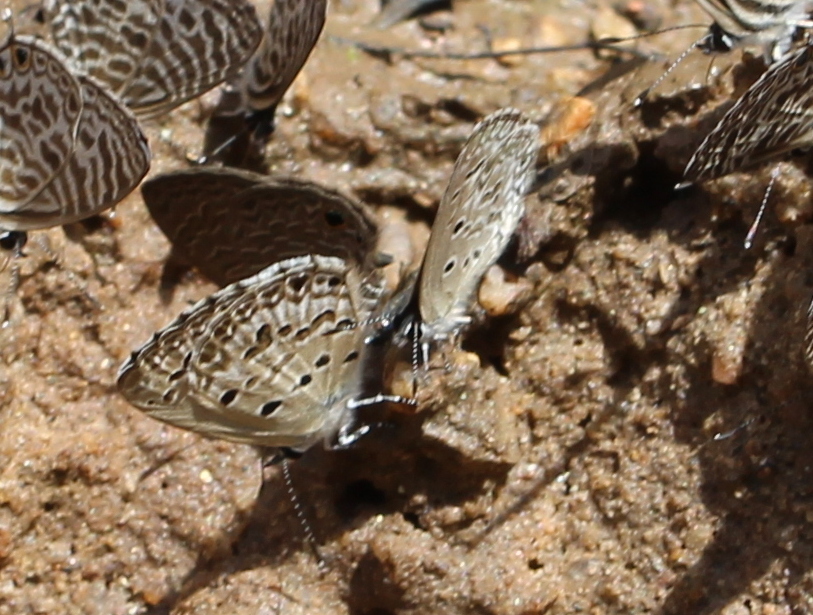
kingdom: Animalia
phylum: Arthropoda
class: Insecta
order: Lepidoptera
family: Lycaenidae
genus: Chilades
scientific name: Chilades laius
